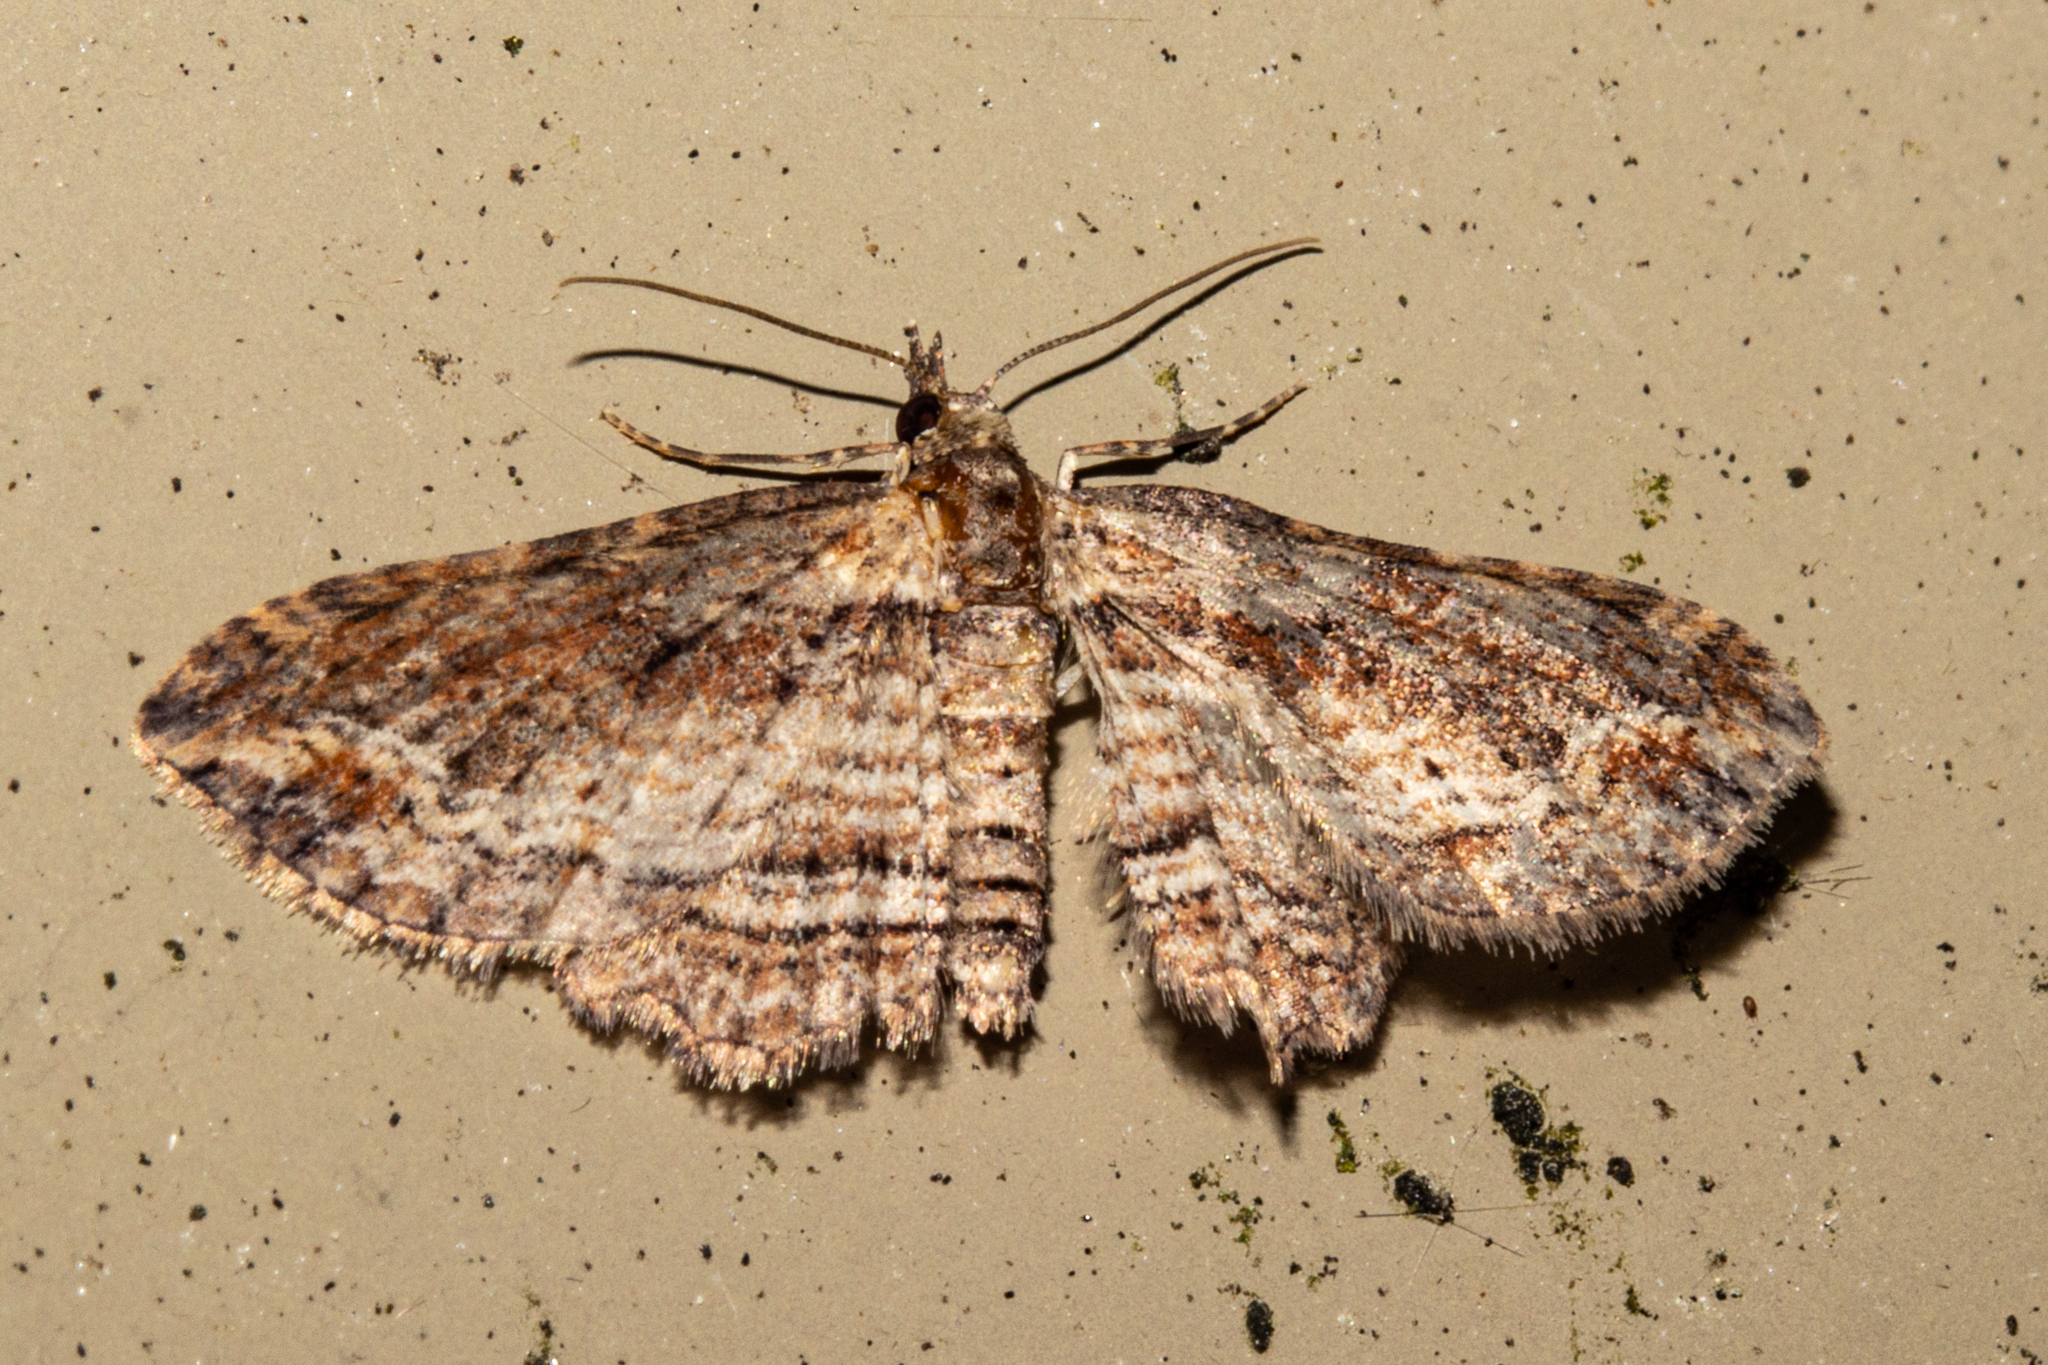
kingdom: Animalia
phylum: Arthropoda
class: Insecta
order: Lepidoptera
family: Geometridae
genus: Chloroclystis
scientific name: Chloroclystis filata
